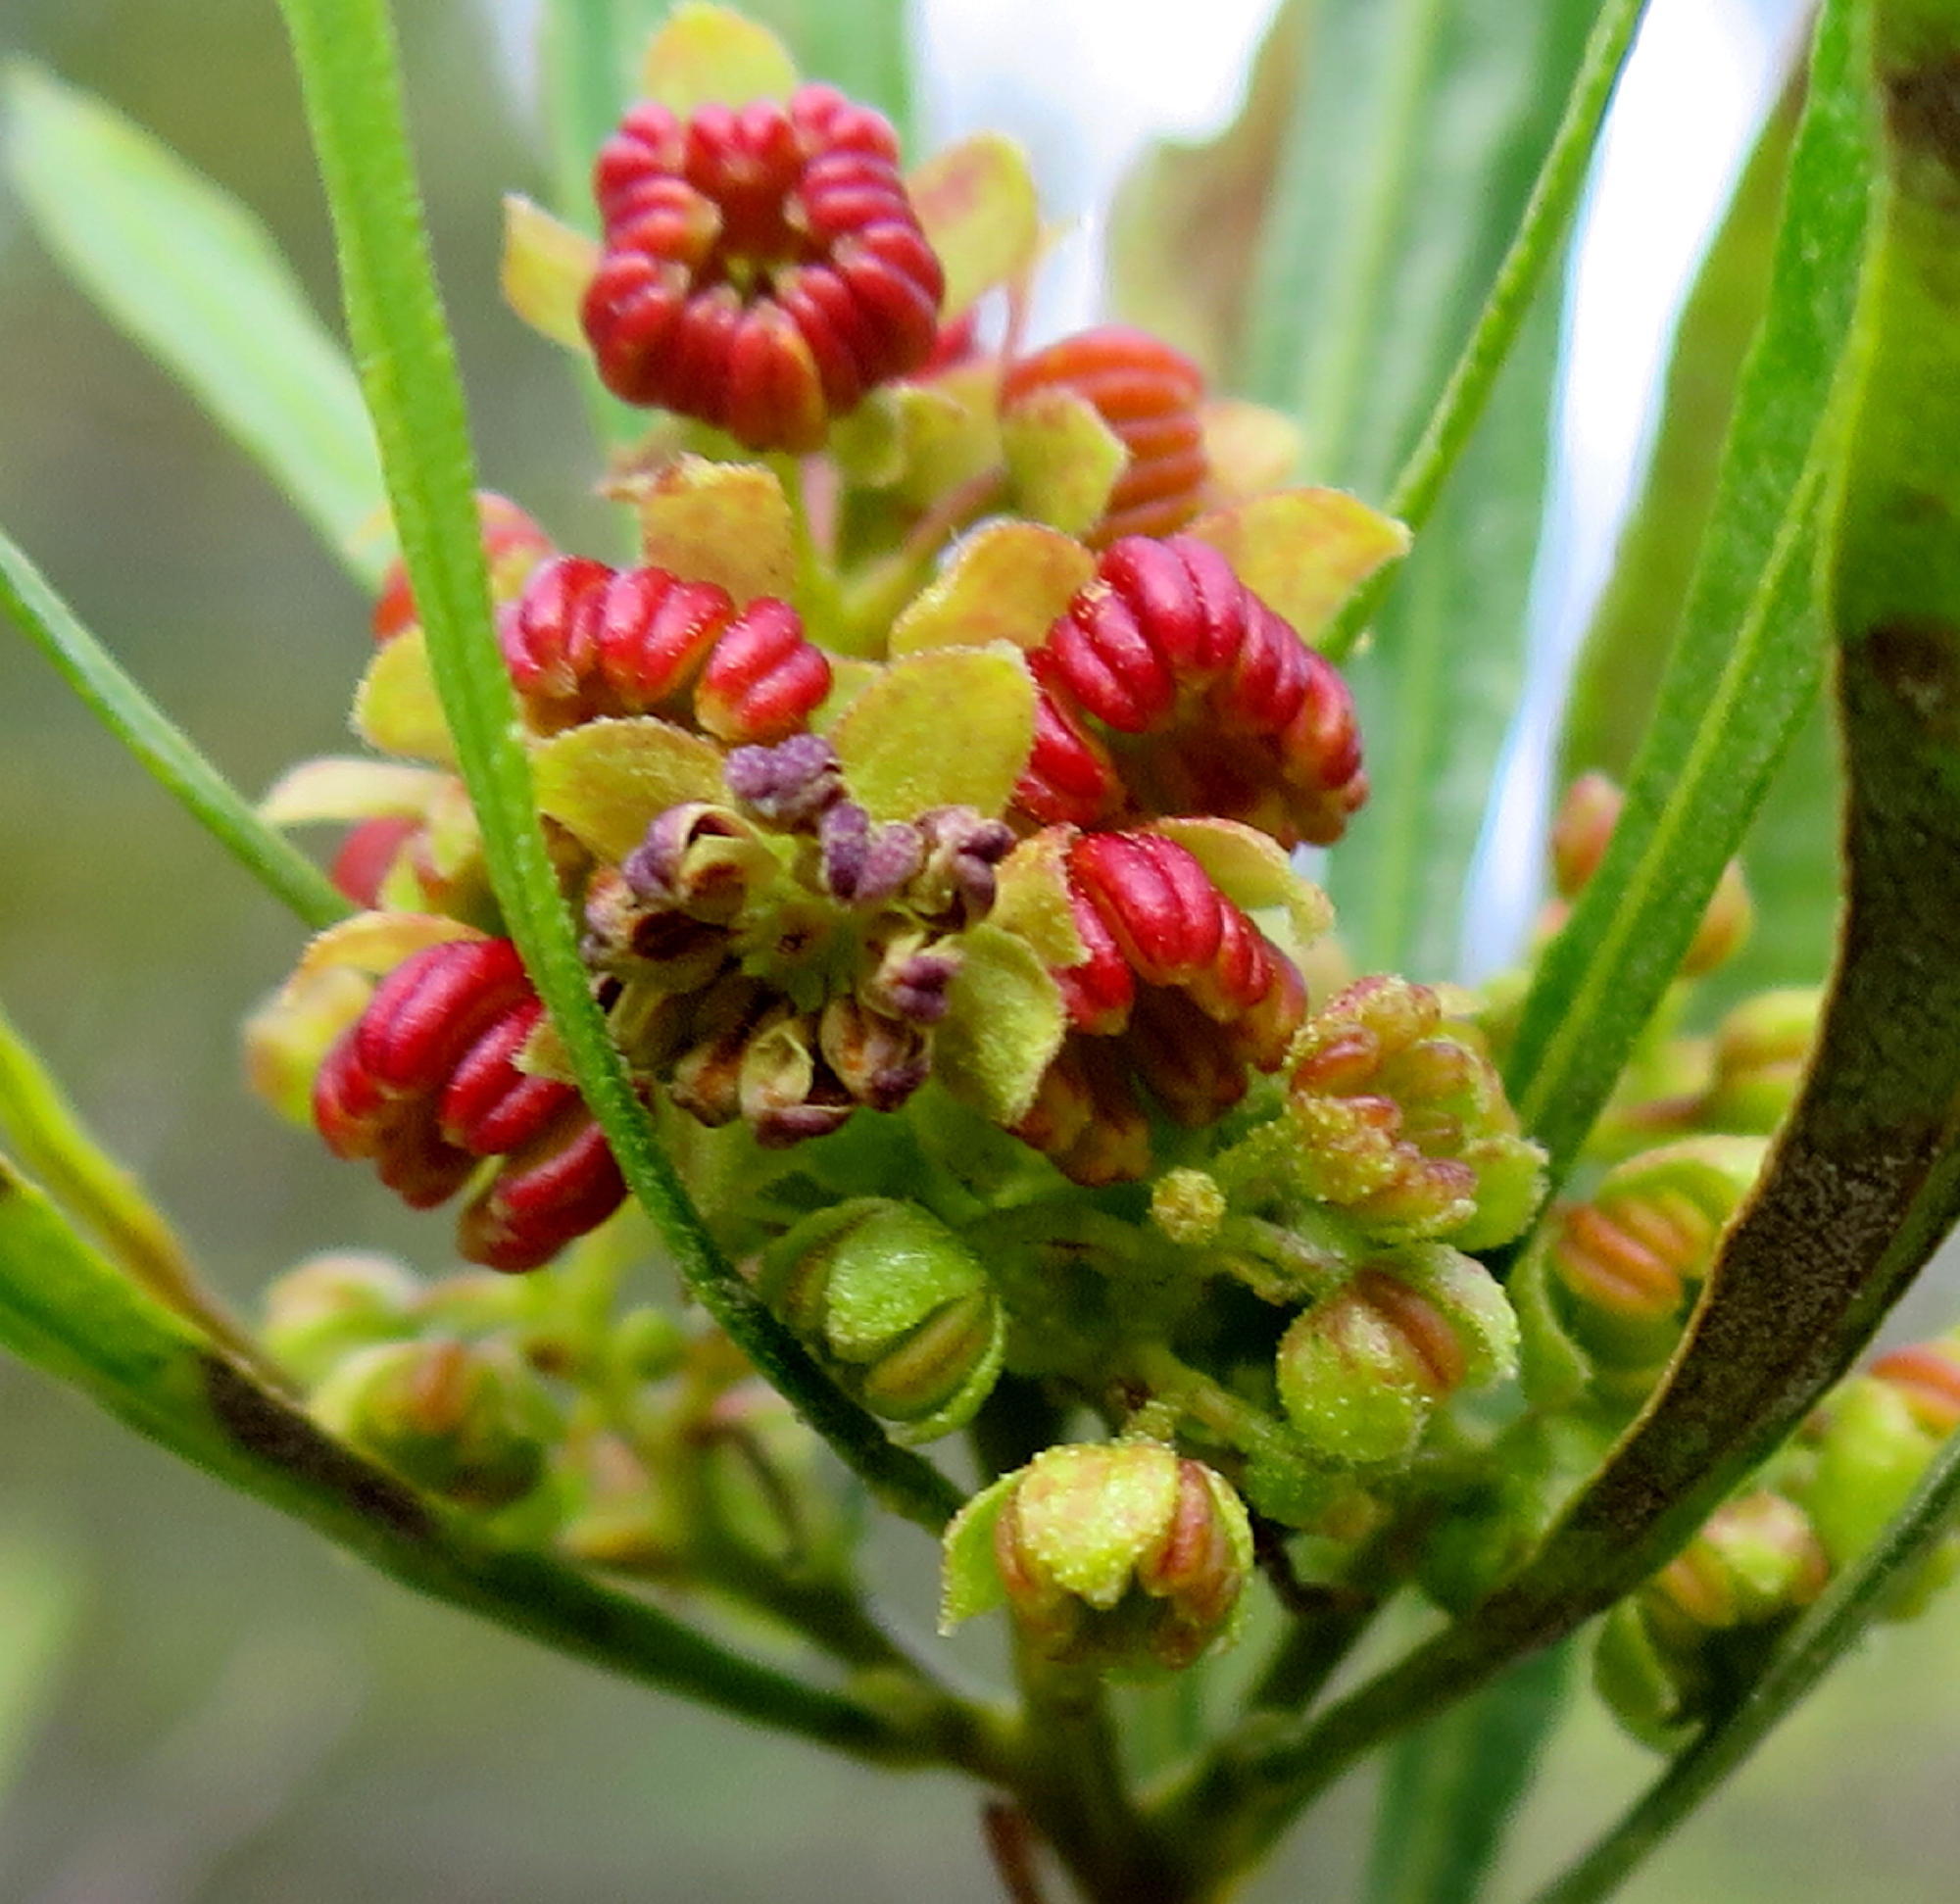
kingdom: Plantae
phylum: Tracheophyta
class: Magnoliopsida
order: Sapindales
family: Sapindaceae
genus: Dodonaea
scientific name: Dodonaea viscosa
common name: Hopbush
